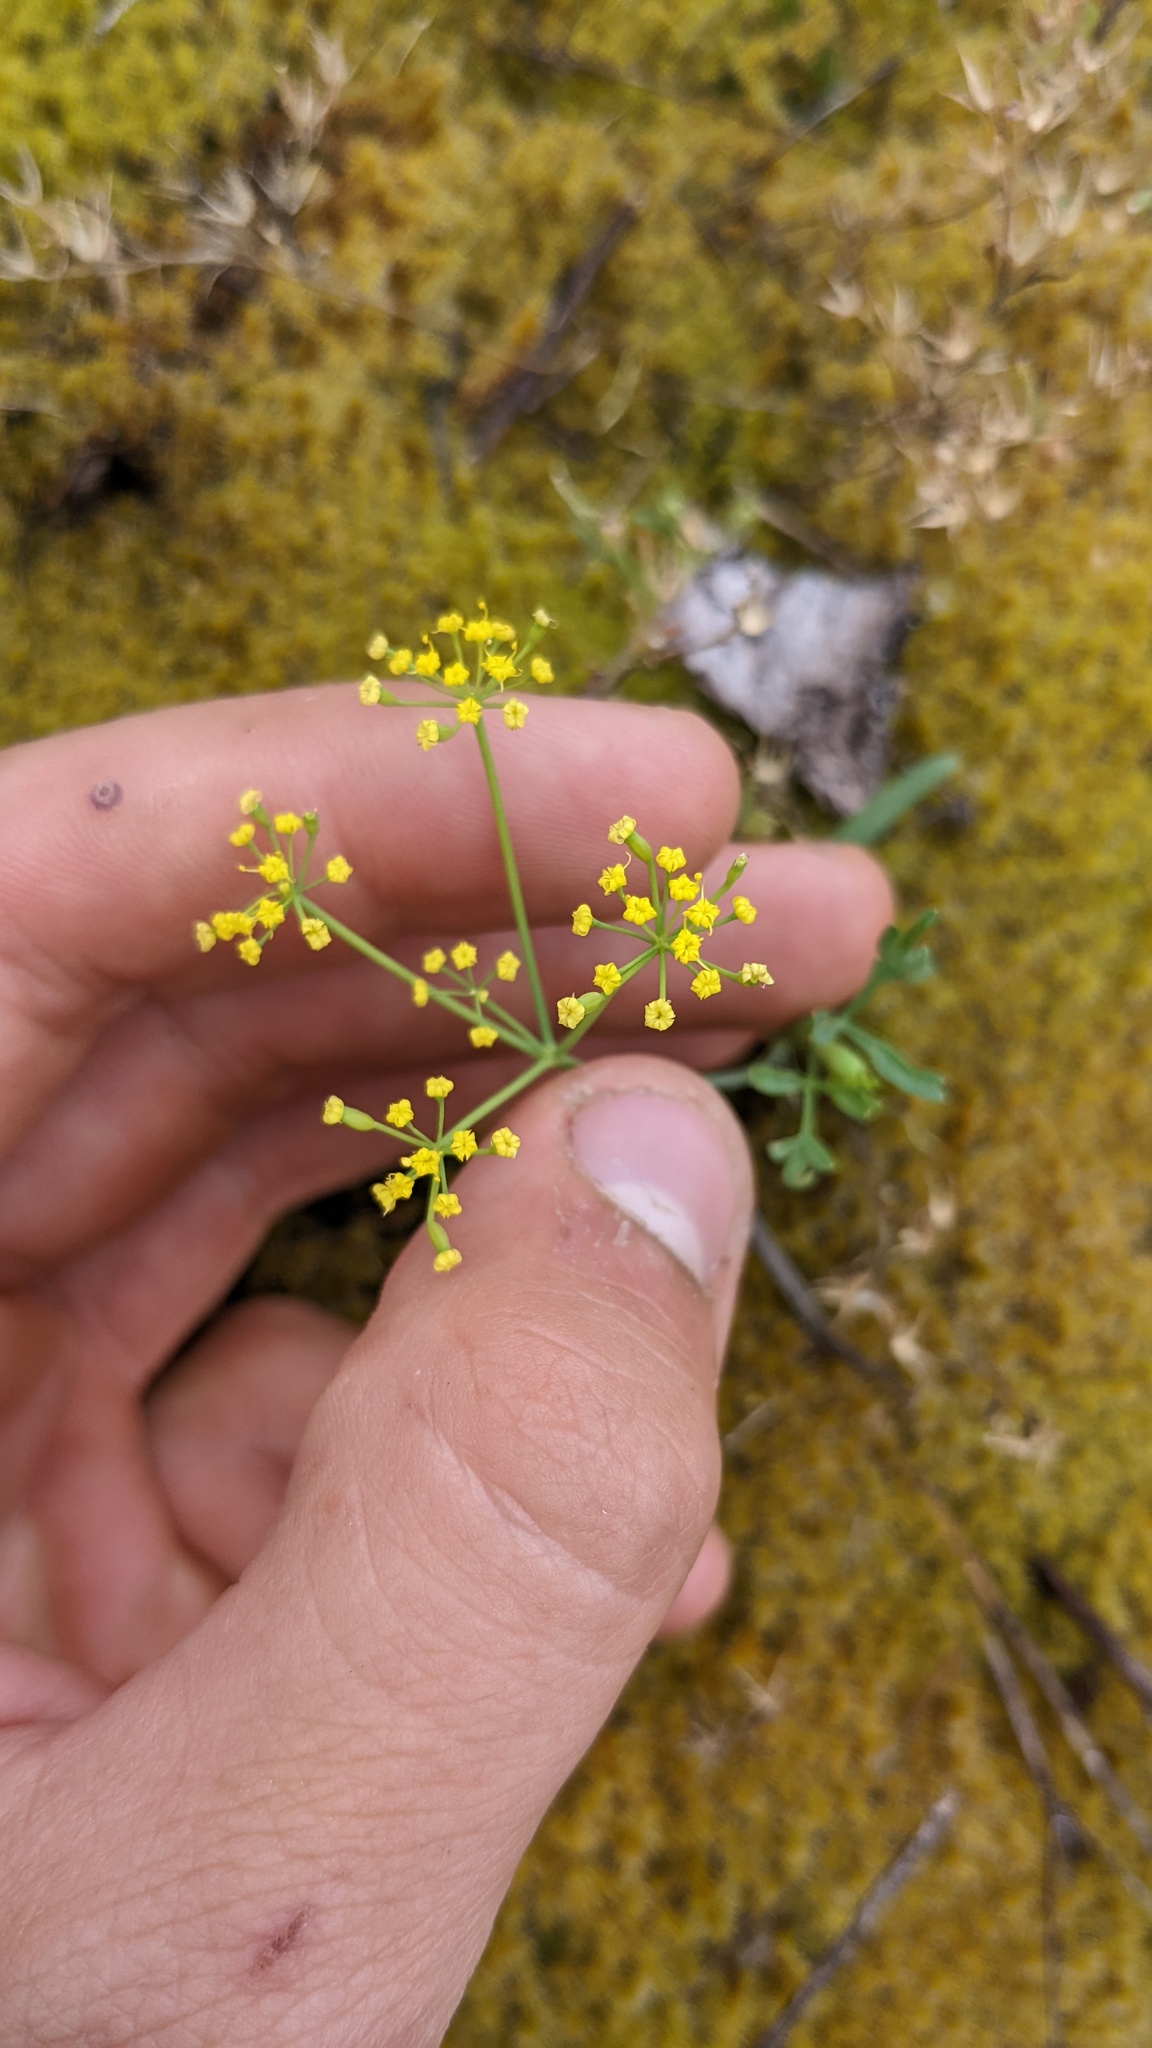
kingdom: Plantae
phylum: Tracheophyta
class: Magnoliopsida
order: Apiales
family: Apiaceae
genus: Lomatium
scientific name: Lomatium ambiguum
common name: Lacy lomatium
